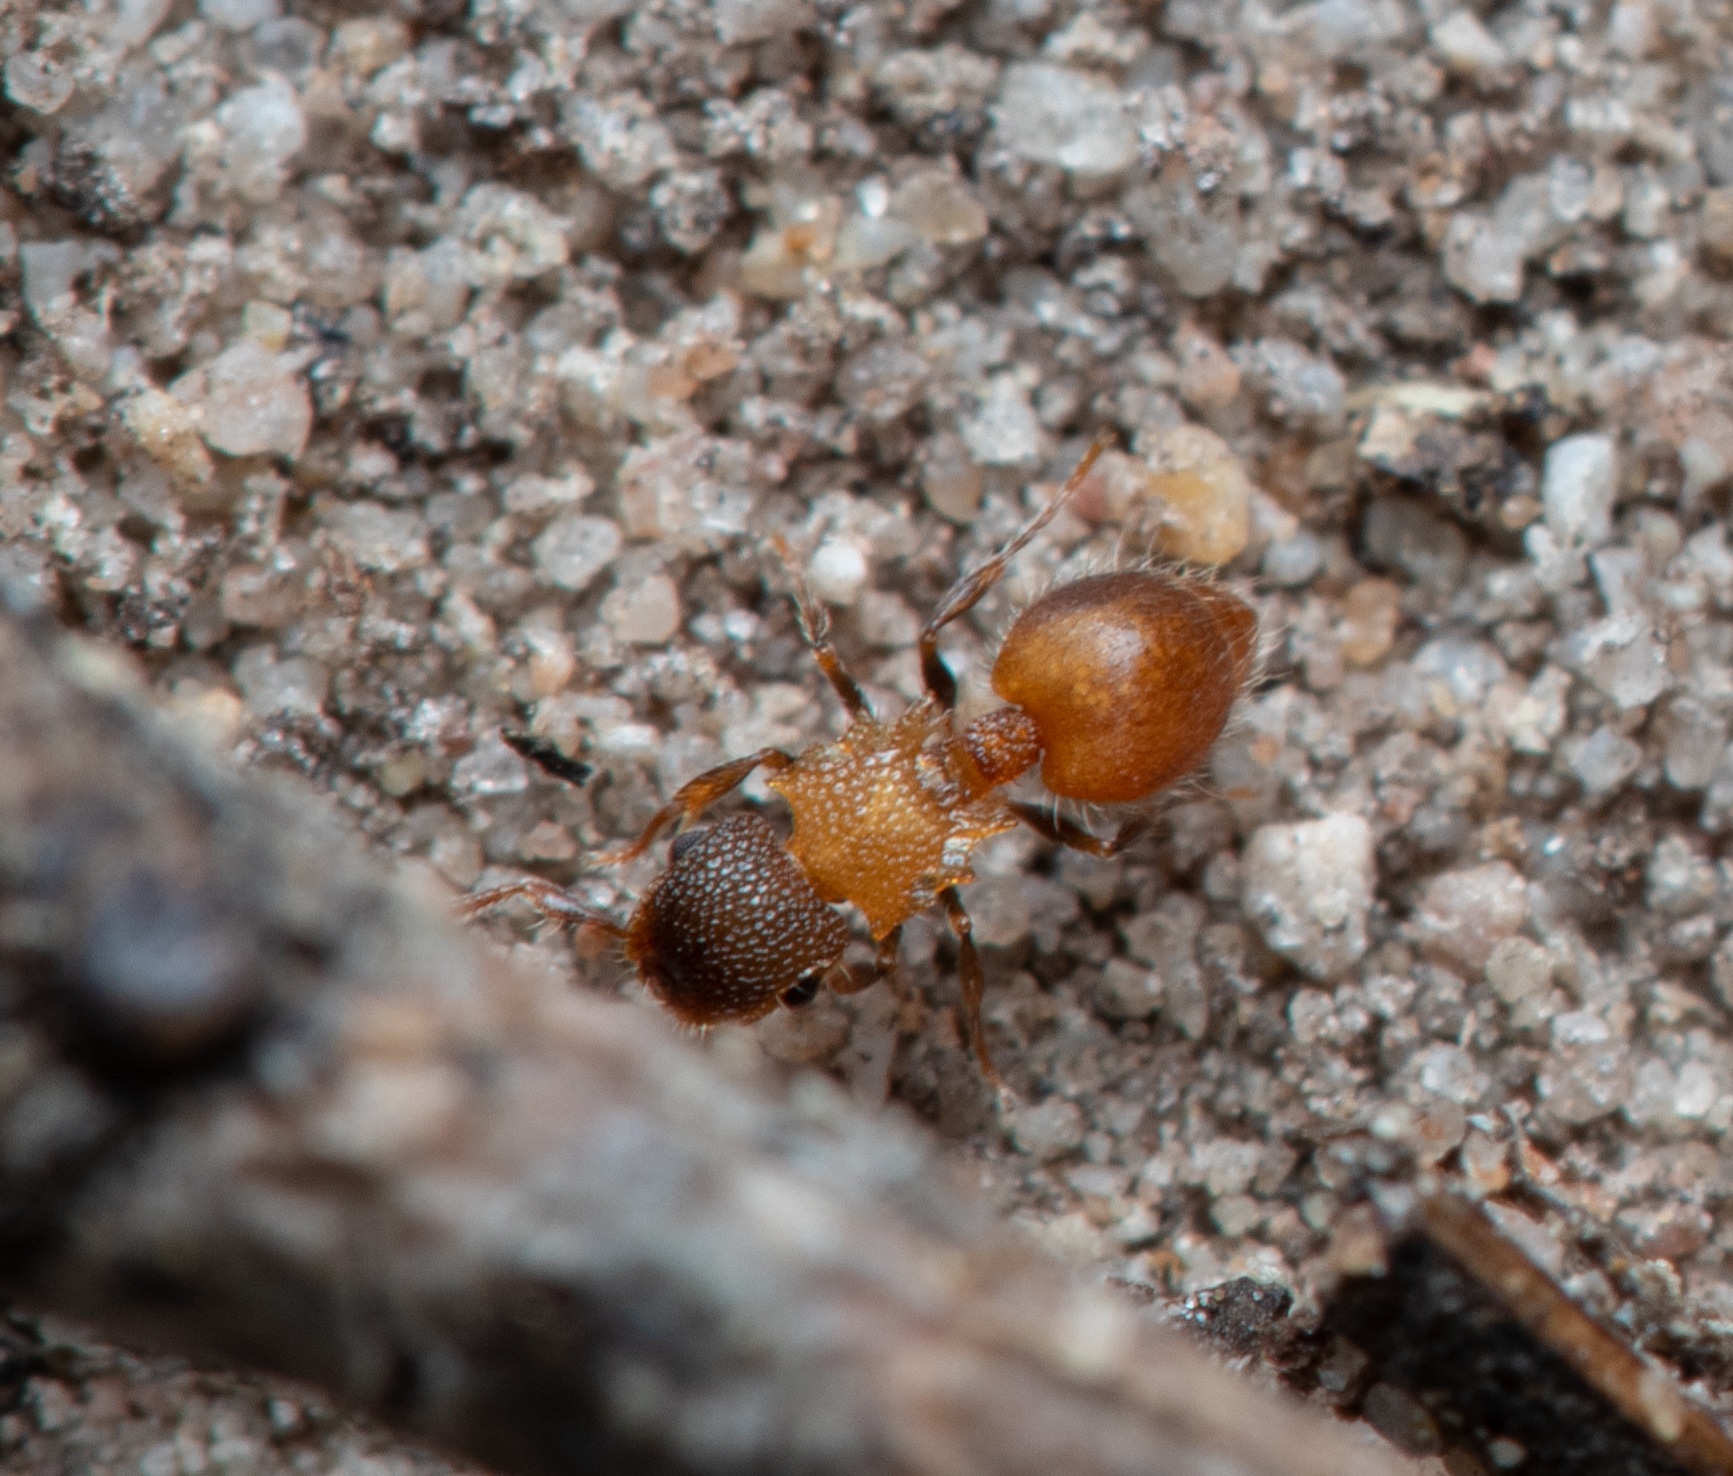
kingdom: Animalia
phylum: Arthropoda
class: Insecta
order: Hymenoptera
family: Formicidae
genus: Meranoplus
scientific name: Meranoplus froggatti
